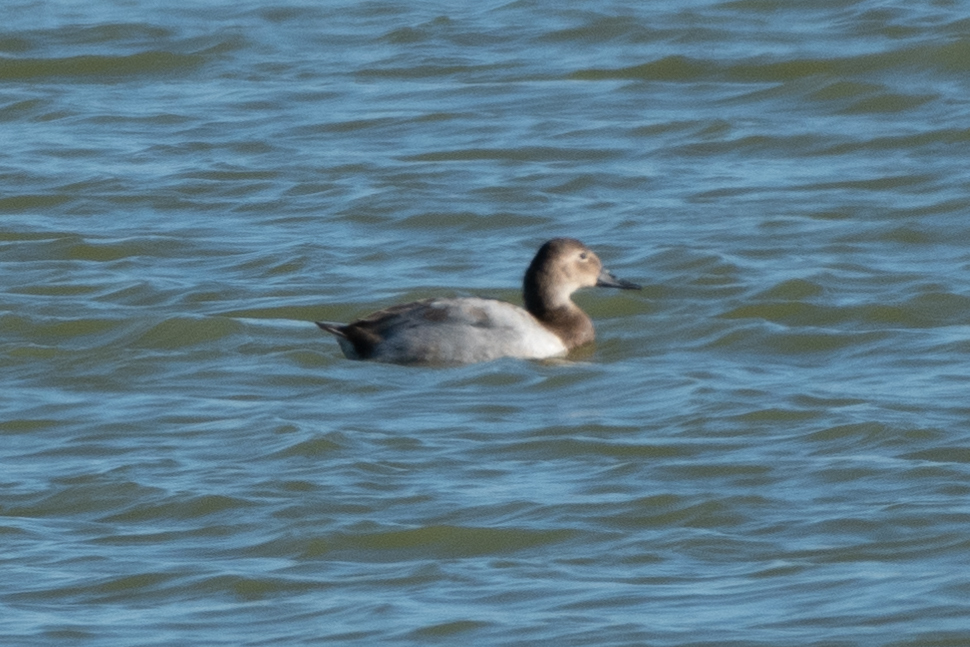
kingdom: Animalia
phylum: Chordata
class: Aves
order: Anseriformes
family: Anatidae
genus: Aythya
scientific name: Aythya valisineria
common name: Canvasback
